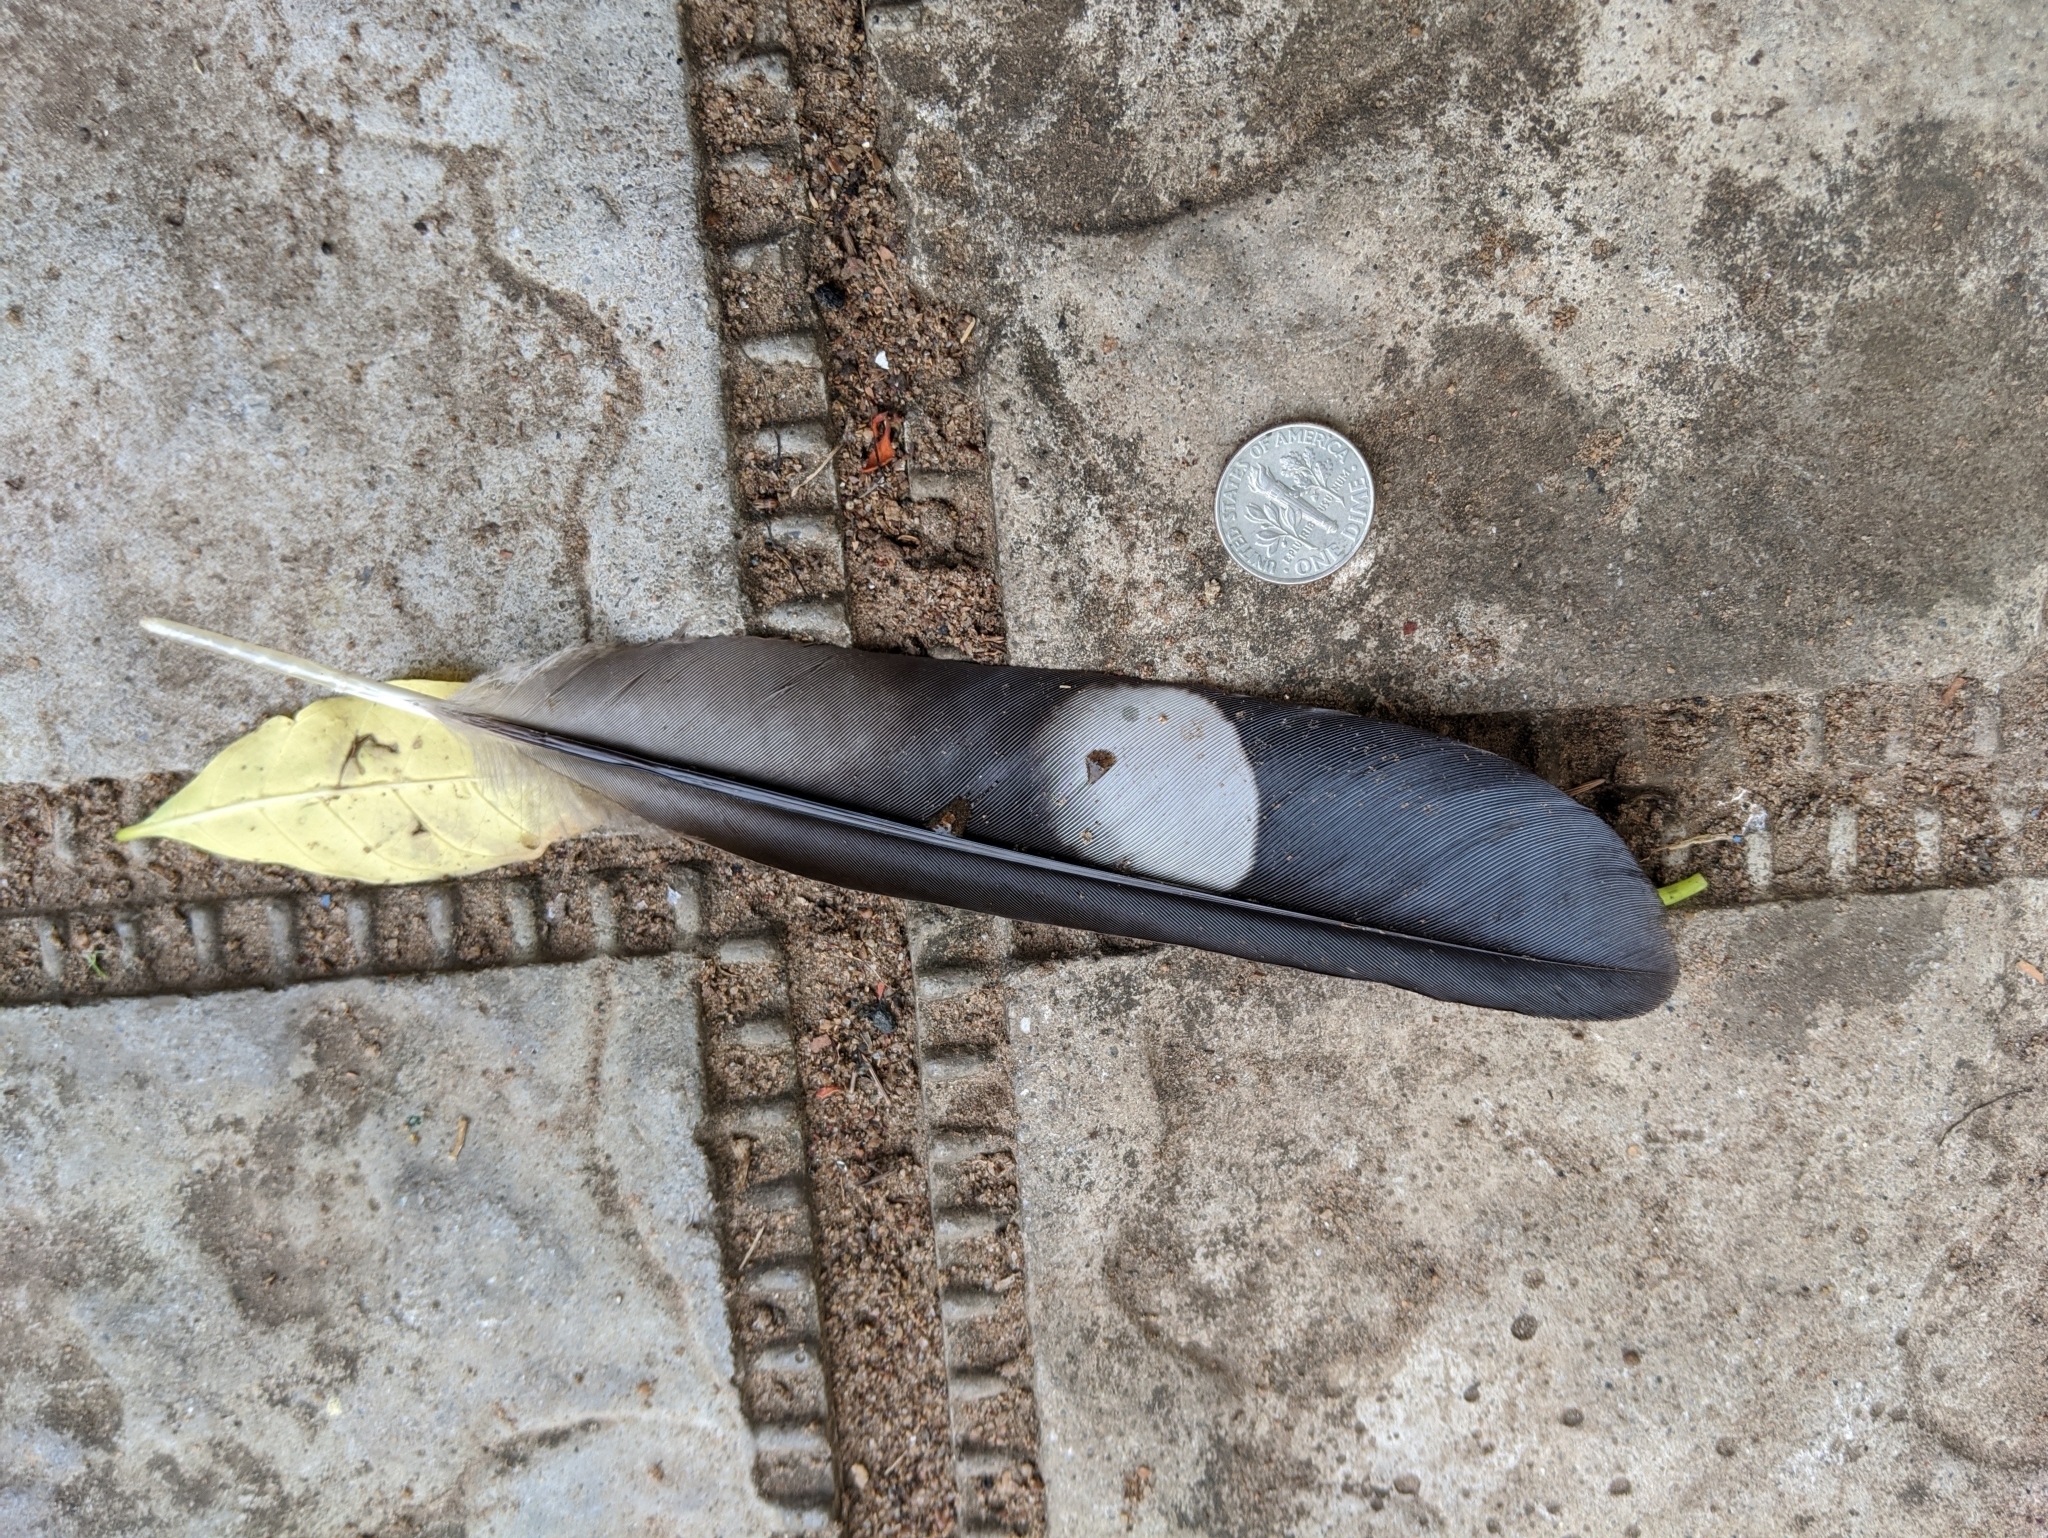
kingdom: Animalia
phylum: Chordata
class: Aves
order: Musophagiformes
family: Musophagidae
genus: Crinifer
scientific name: Crinifer piscator
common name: Western plantain-eater
